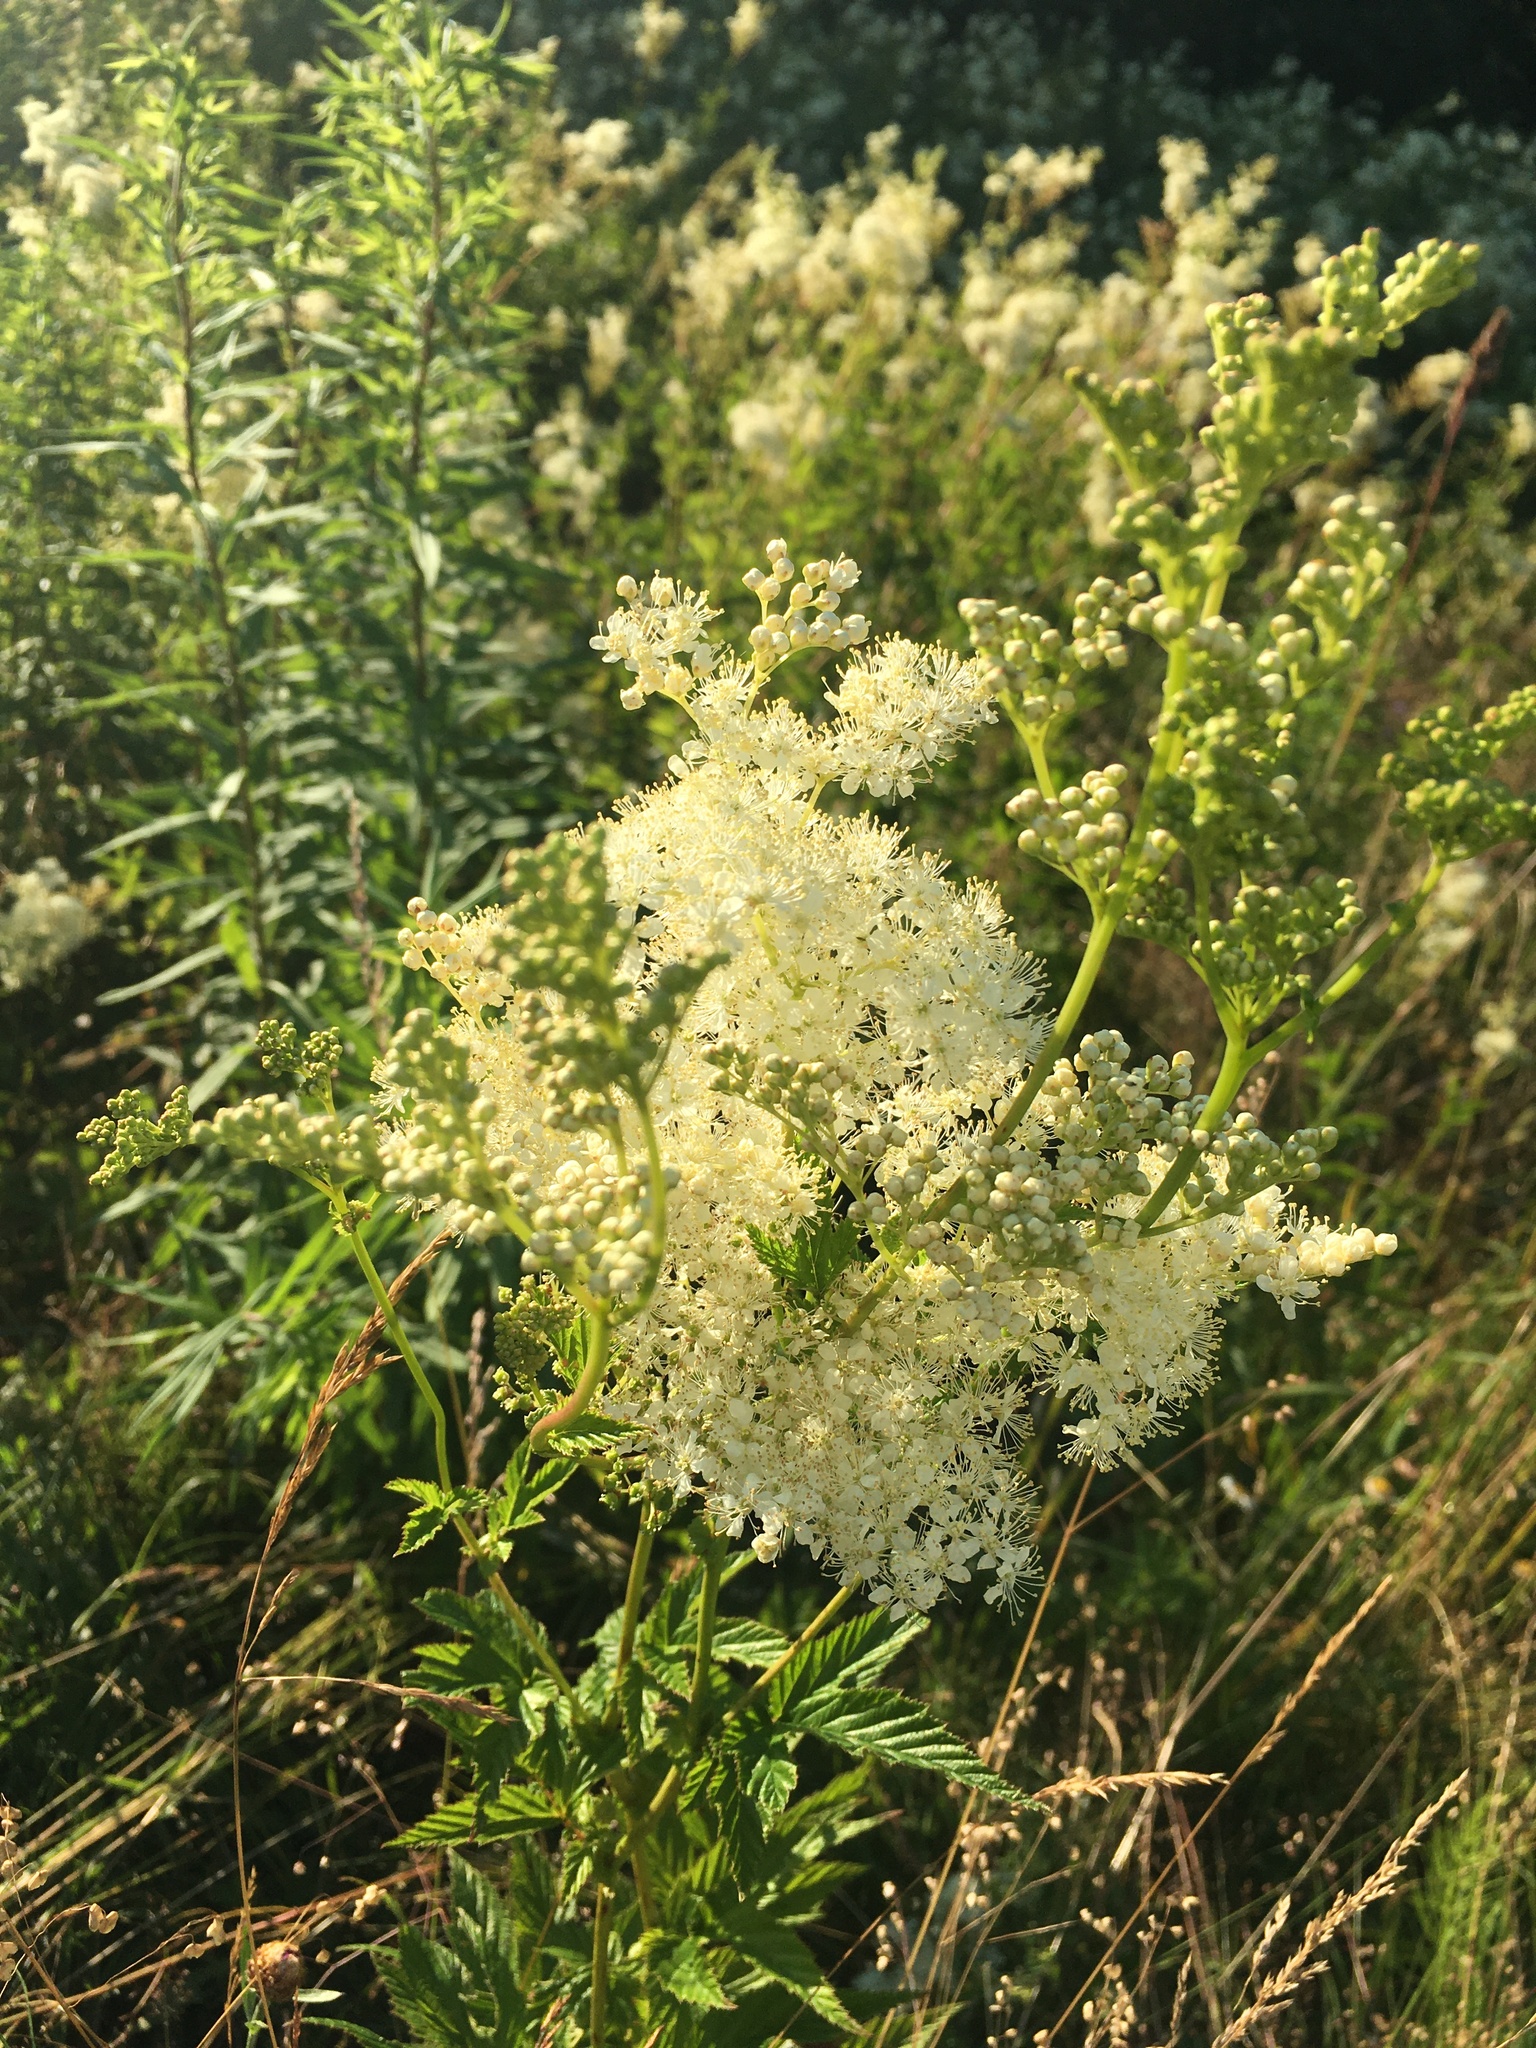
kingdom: Plantae
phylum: Tracheophyta
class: Magnoliopsida
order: Rosales
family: Rosaceae
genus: Filipendula
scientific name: Filipendula ulmaria
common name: Meadowsweet
